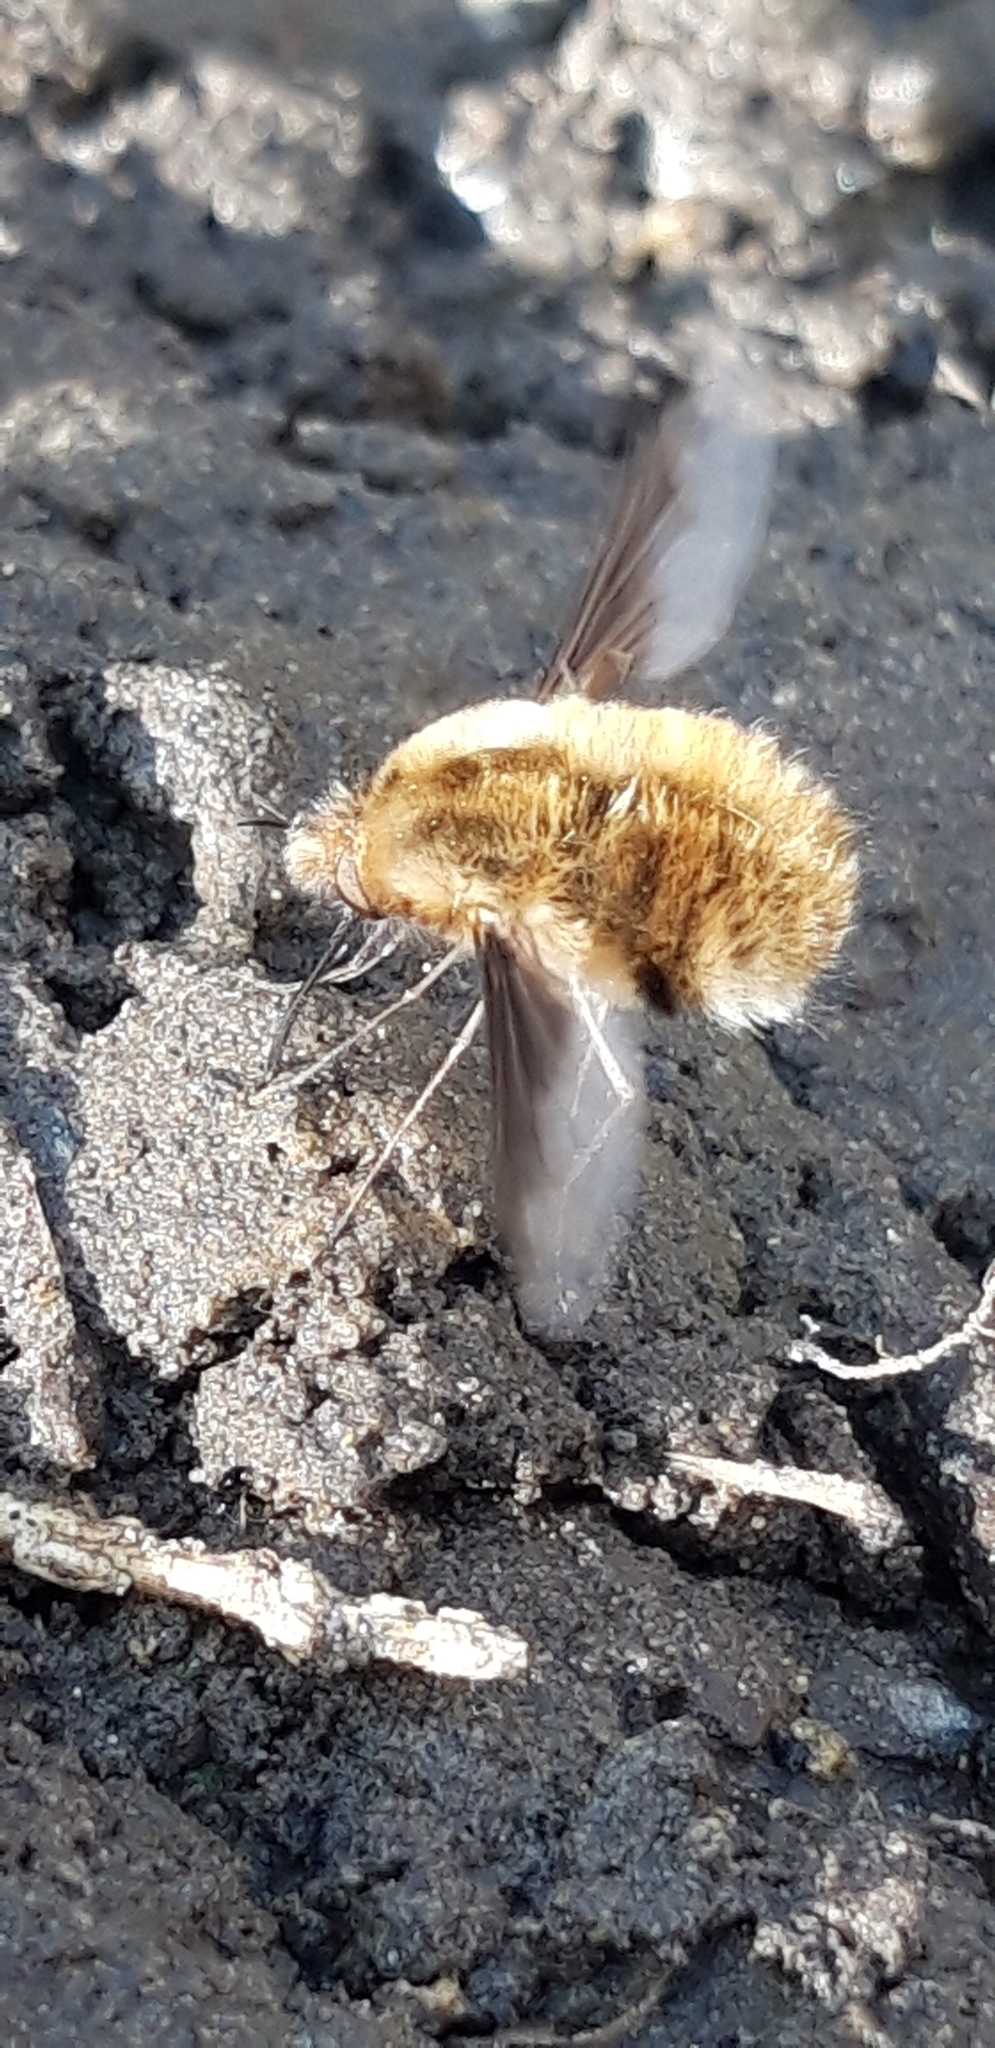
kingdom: Animalia
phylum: Arthropoda
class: Insecta
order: Diptera
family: Bombyliidae
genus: Bombylius
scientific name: Bombylius major
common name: Bee fly
